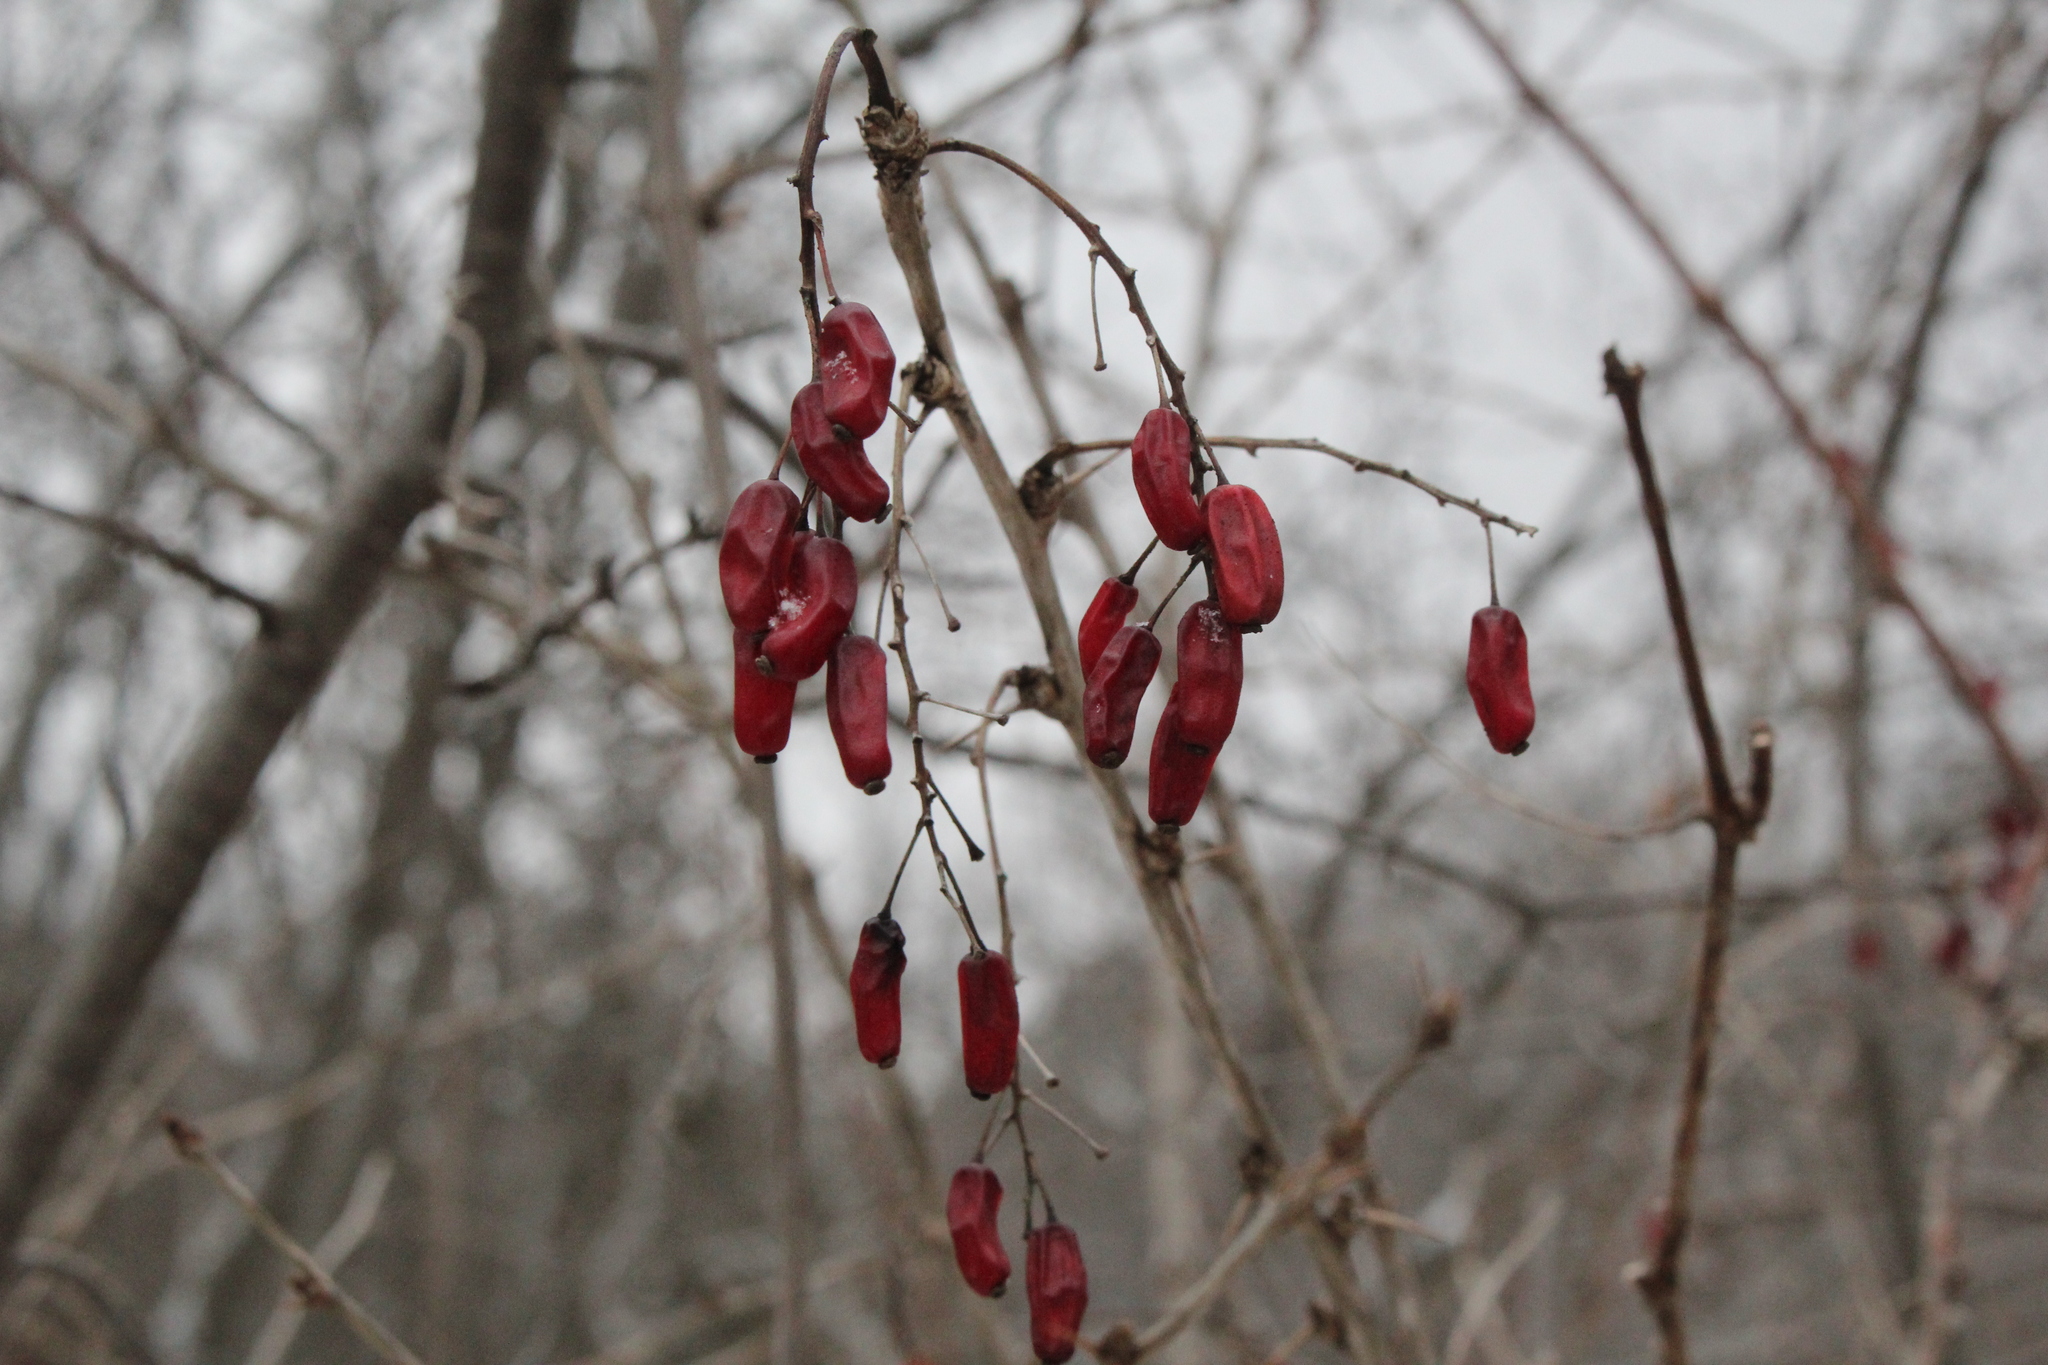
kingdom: Plantae
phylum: Tracheophyta
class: Magnoliopsida
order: Ranunculales
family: Berberidaceae
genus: Berberis
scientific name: Berberis vulgaris
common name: Barberry
